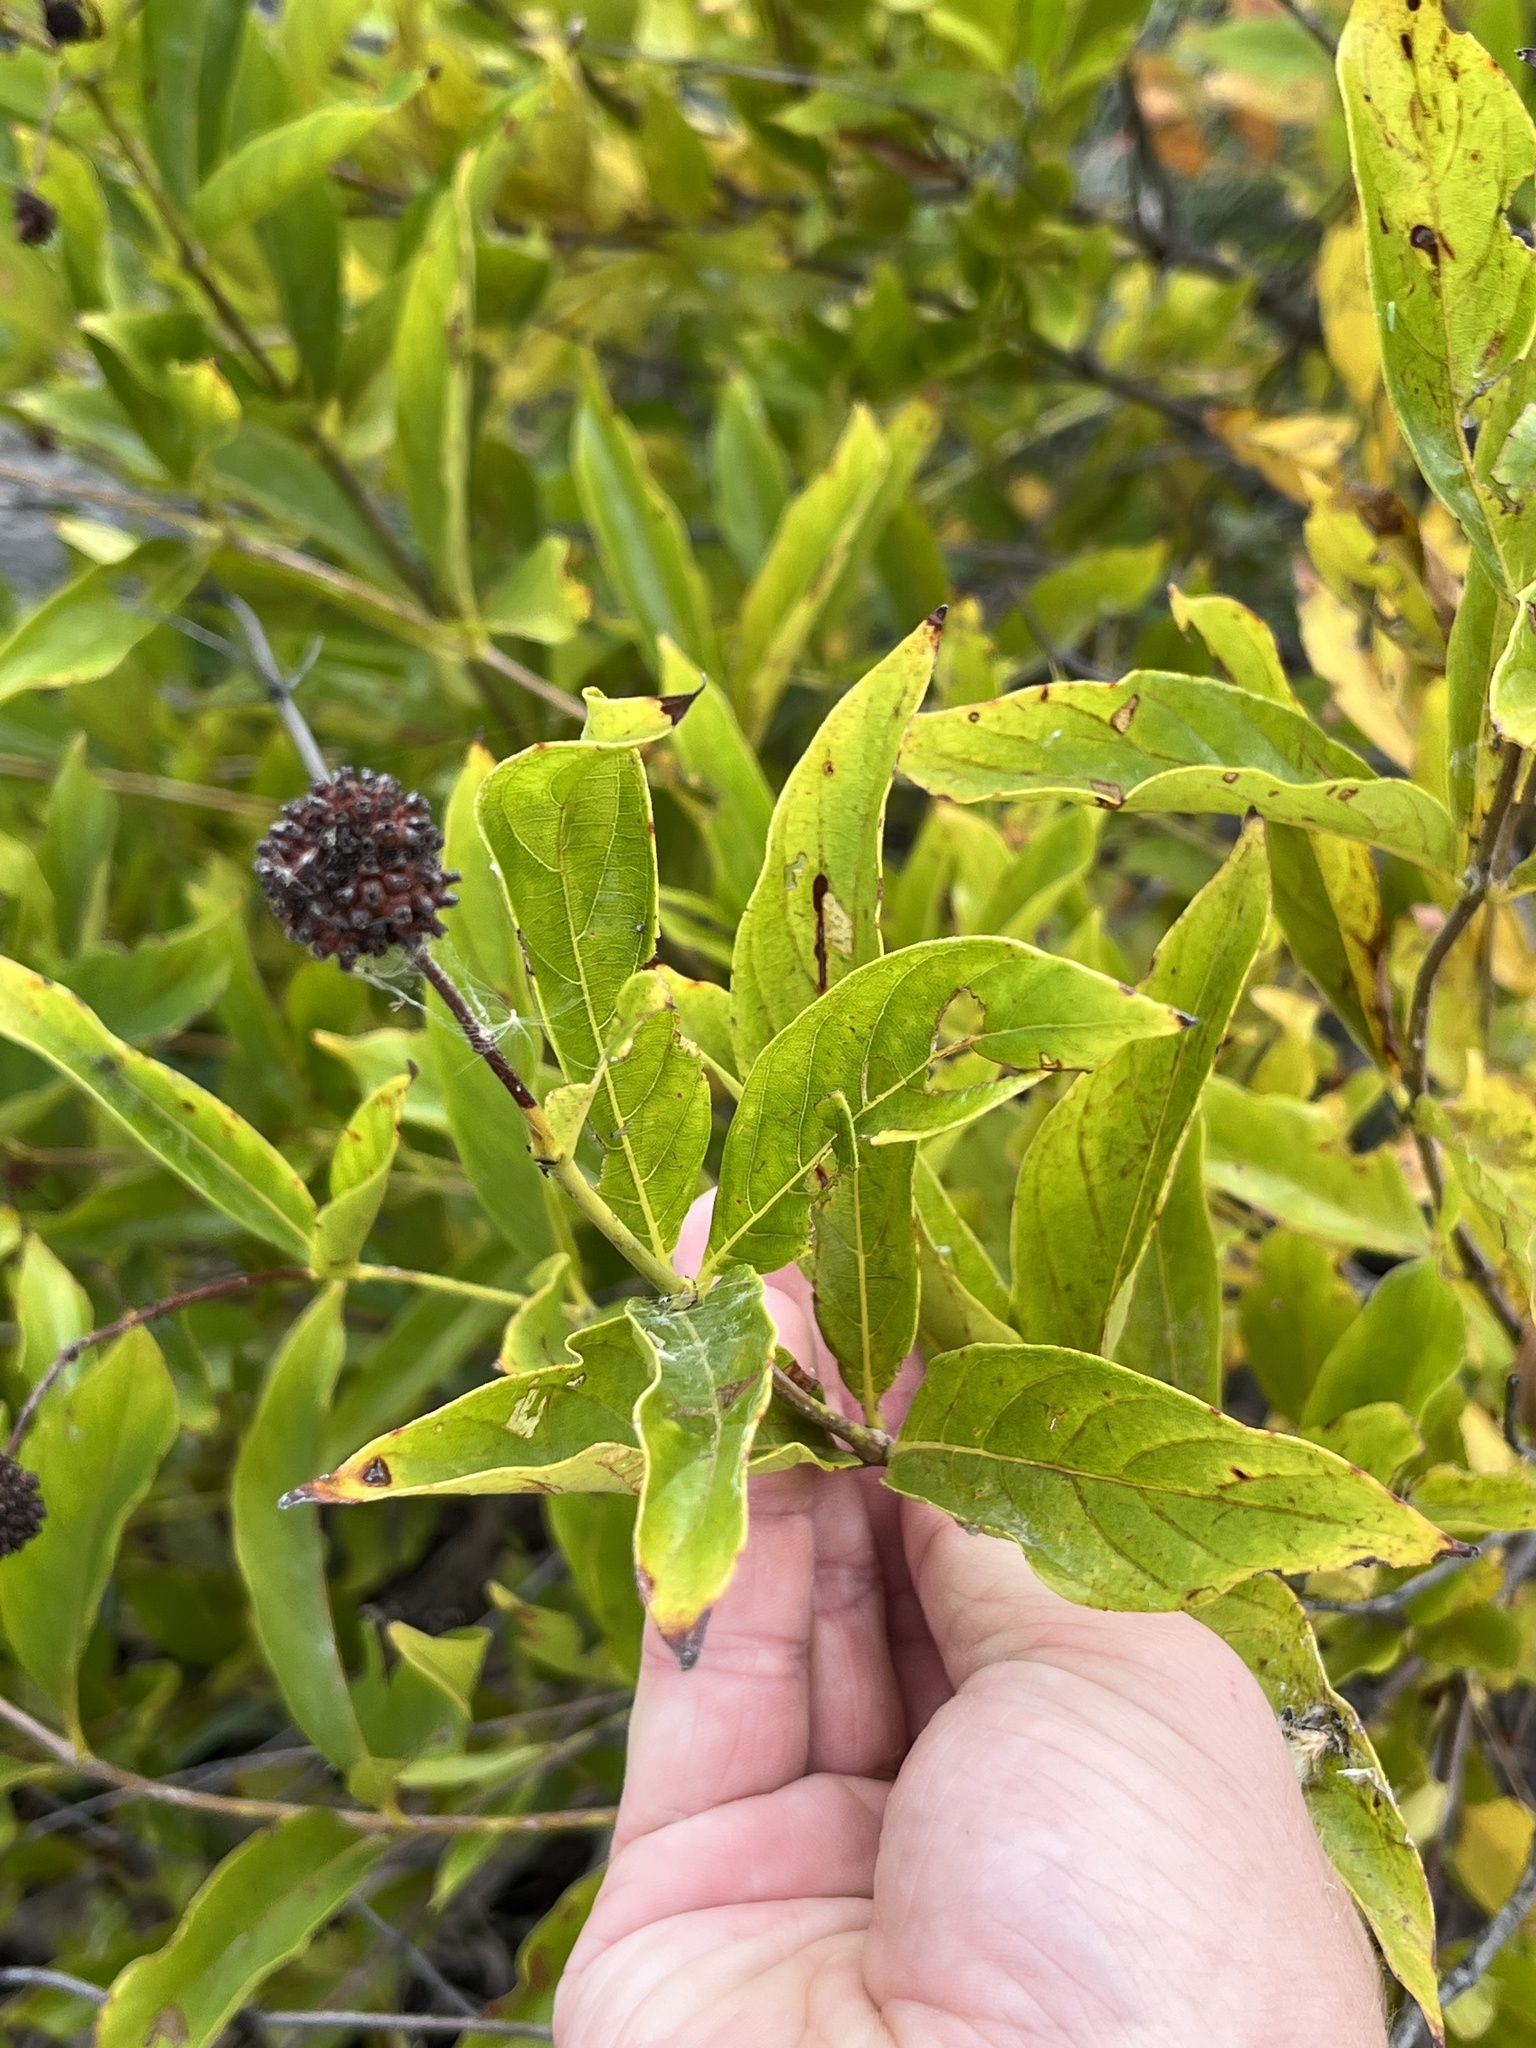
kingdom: Plantae
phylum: Tracheophyta
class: Magnoliopsida
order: Gentianales
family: Rubiaceae
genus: Cephalanthus
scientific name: Cephalanthus occidentalis
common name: Button-willow
